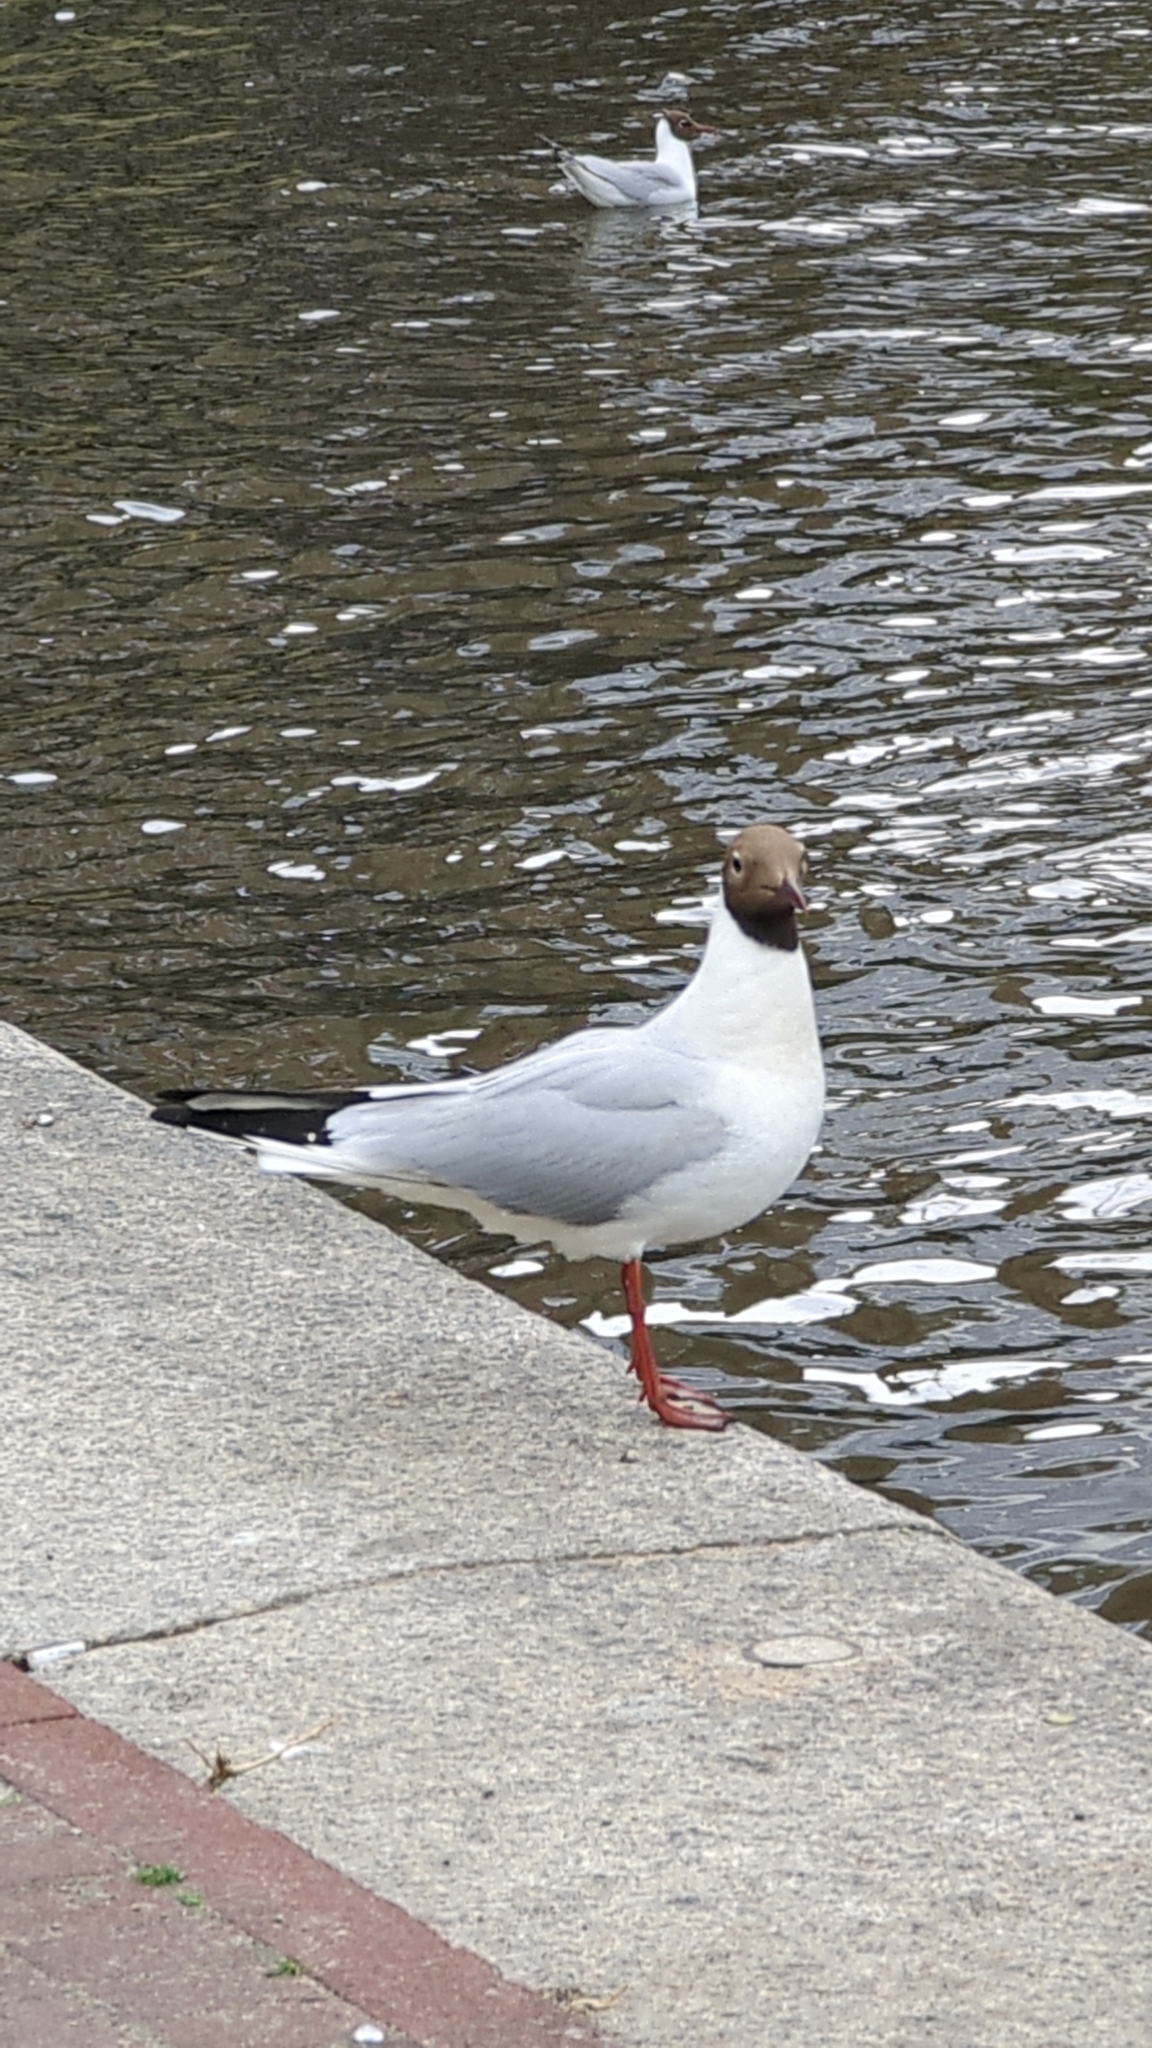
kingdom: Animalia
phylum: Chordata
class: Aves
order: Charadriiformes
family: Laridae
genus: Chroicocephalus
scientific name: Chroicocephalus ridibundus
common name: Black-headed gull
